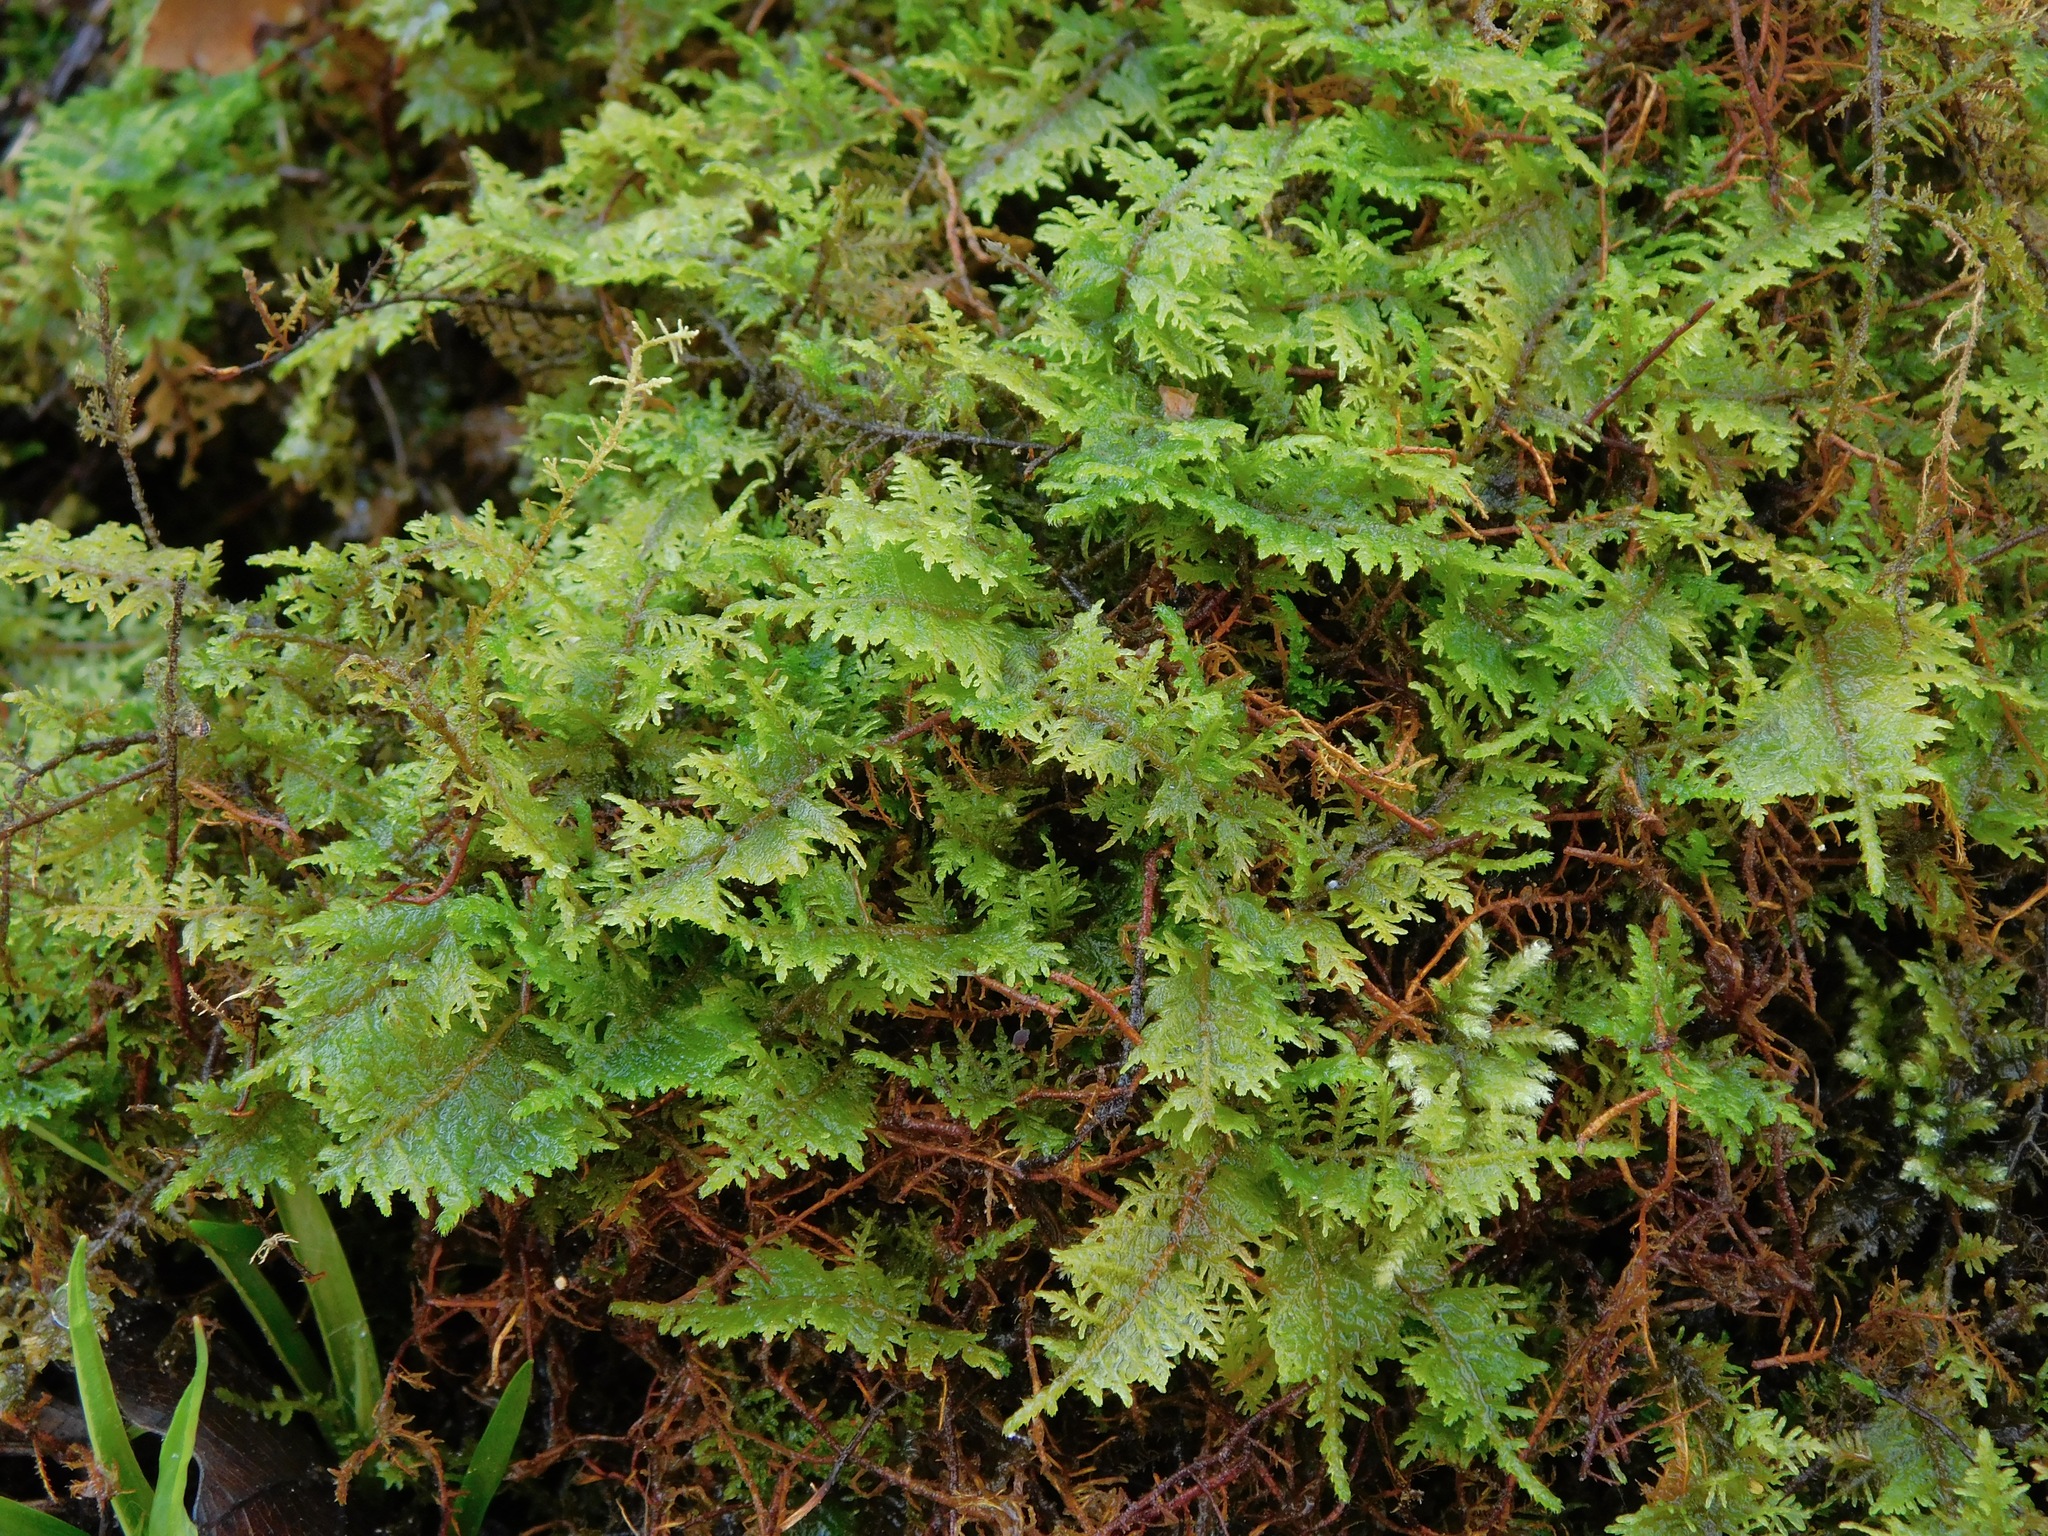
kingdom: Plantae
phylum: Bryophyta
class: Bryopsida
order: Hypnales
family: Hylocomiaceae
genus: Hylocomium
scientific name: Hylocomium splendens
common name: Stairstep moss
